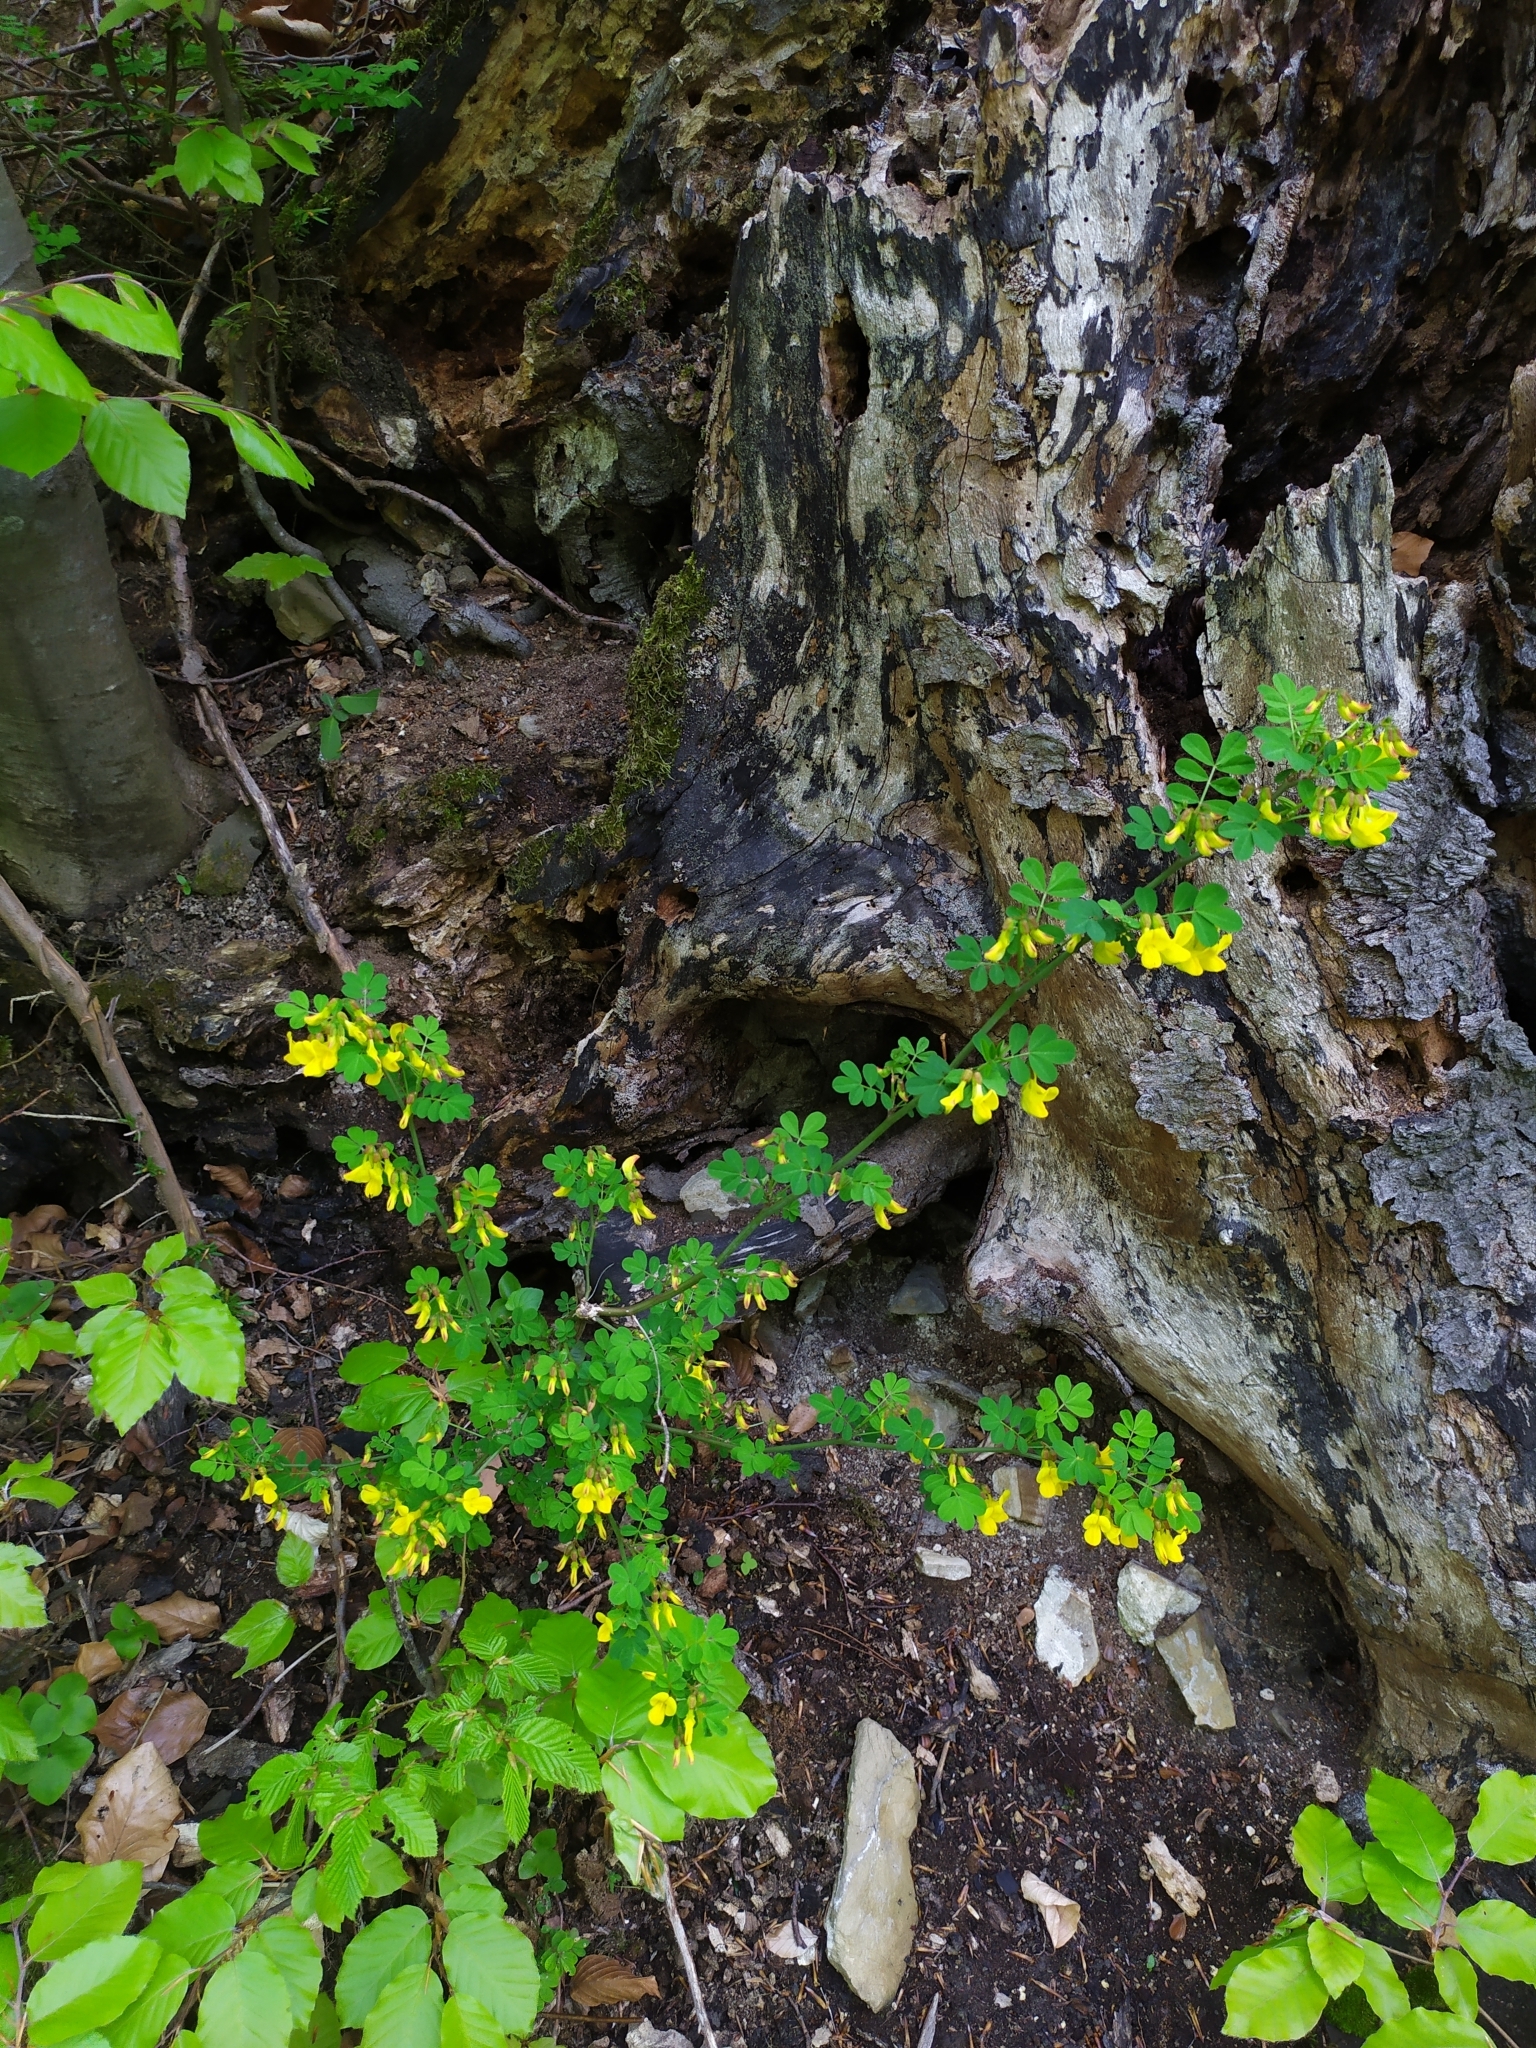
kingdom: Plantae
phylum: Tracheophyta
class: Magnoliopsida
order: Fabales
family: Fabaceae
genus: Hippocrepis
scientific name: Hippocrepis emerus
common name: Scorpion senna
